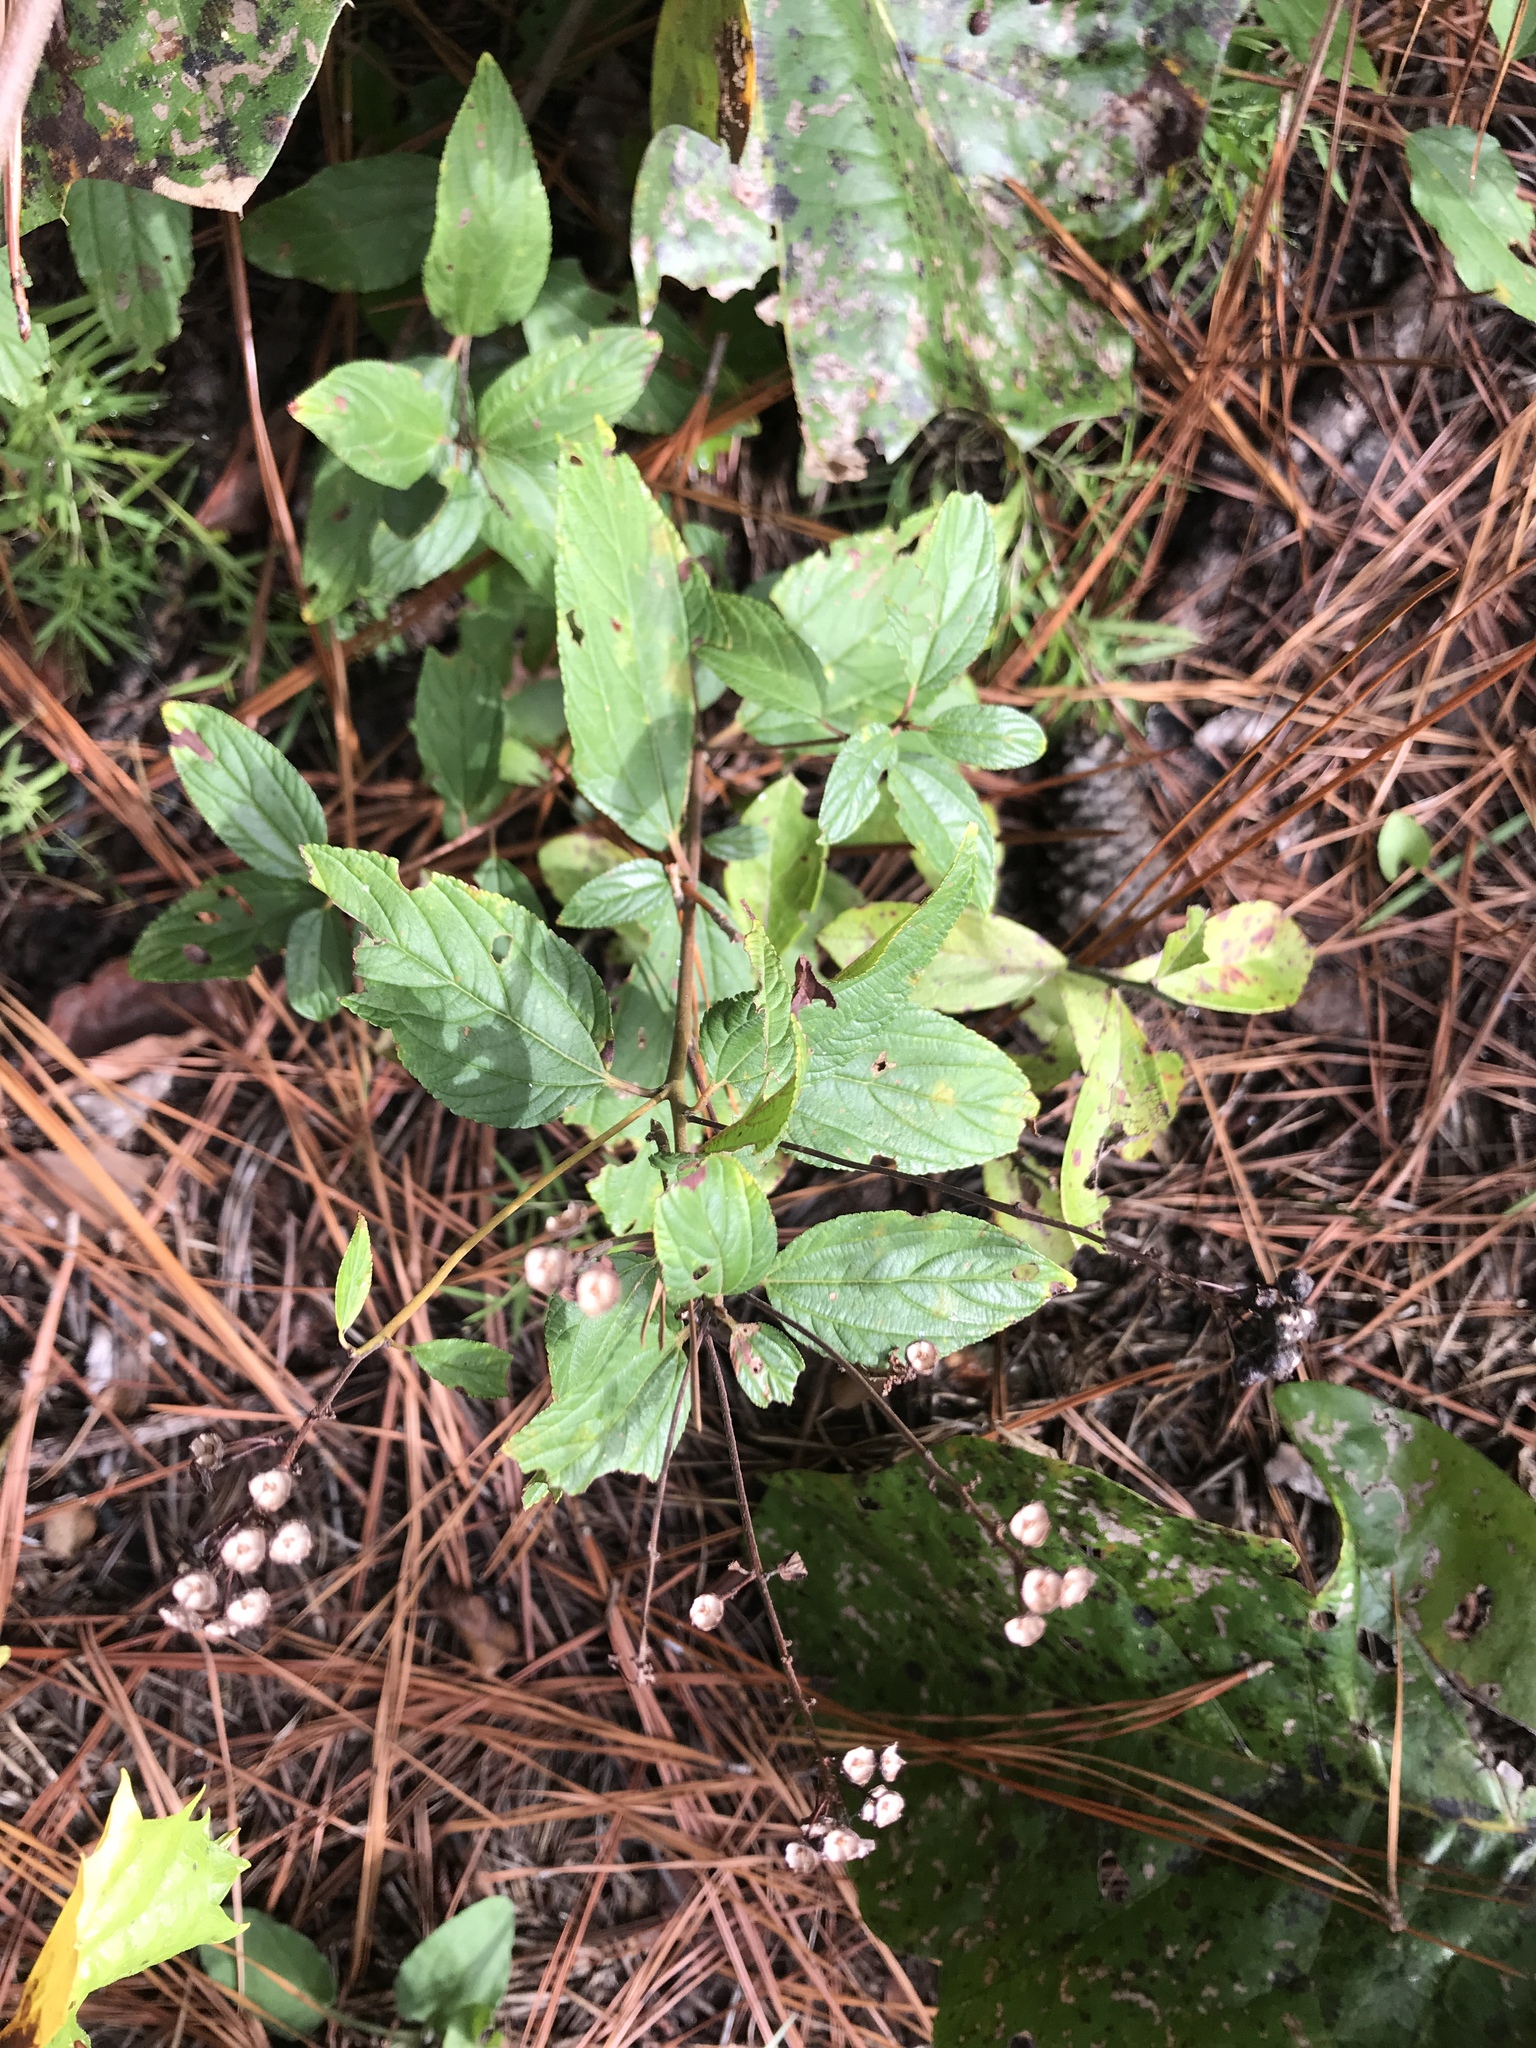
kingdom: Plantae
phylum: Tracheophyta
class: Magnoliopsida
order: Rosales
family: Rhamnaceae
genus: Ceanothus
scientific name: Ceanothus americanus
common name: Redroot
